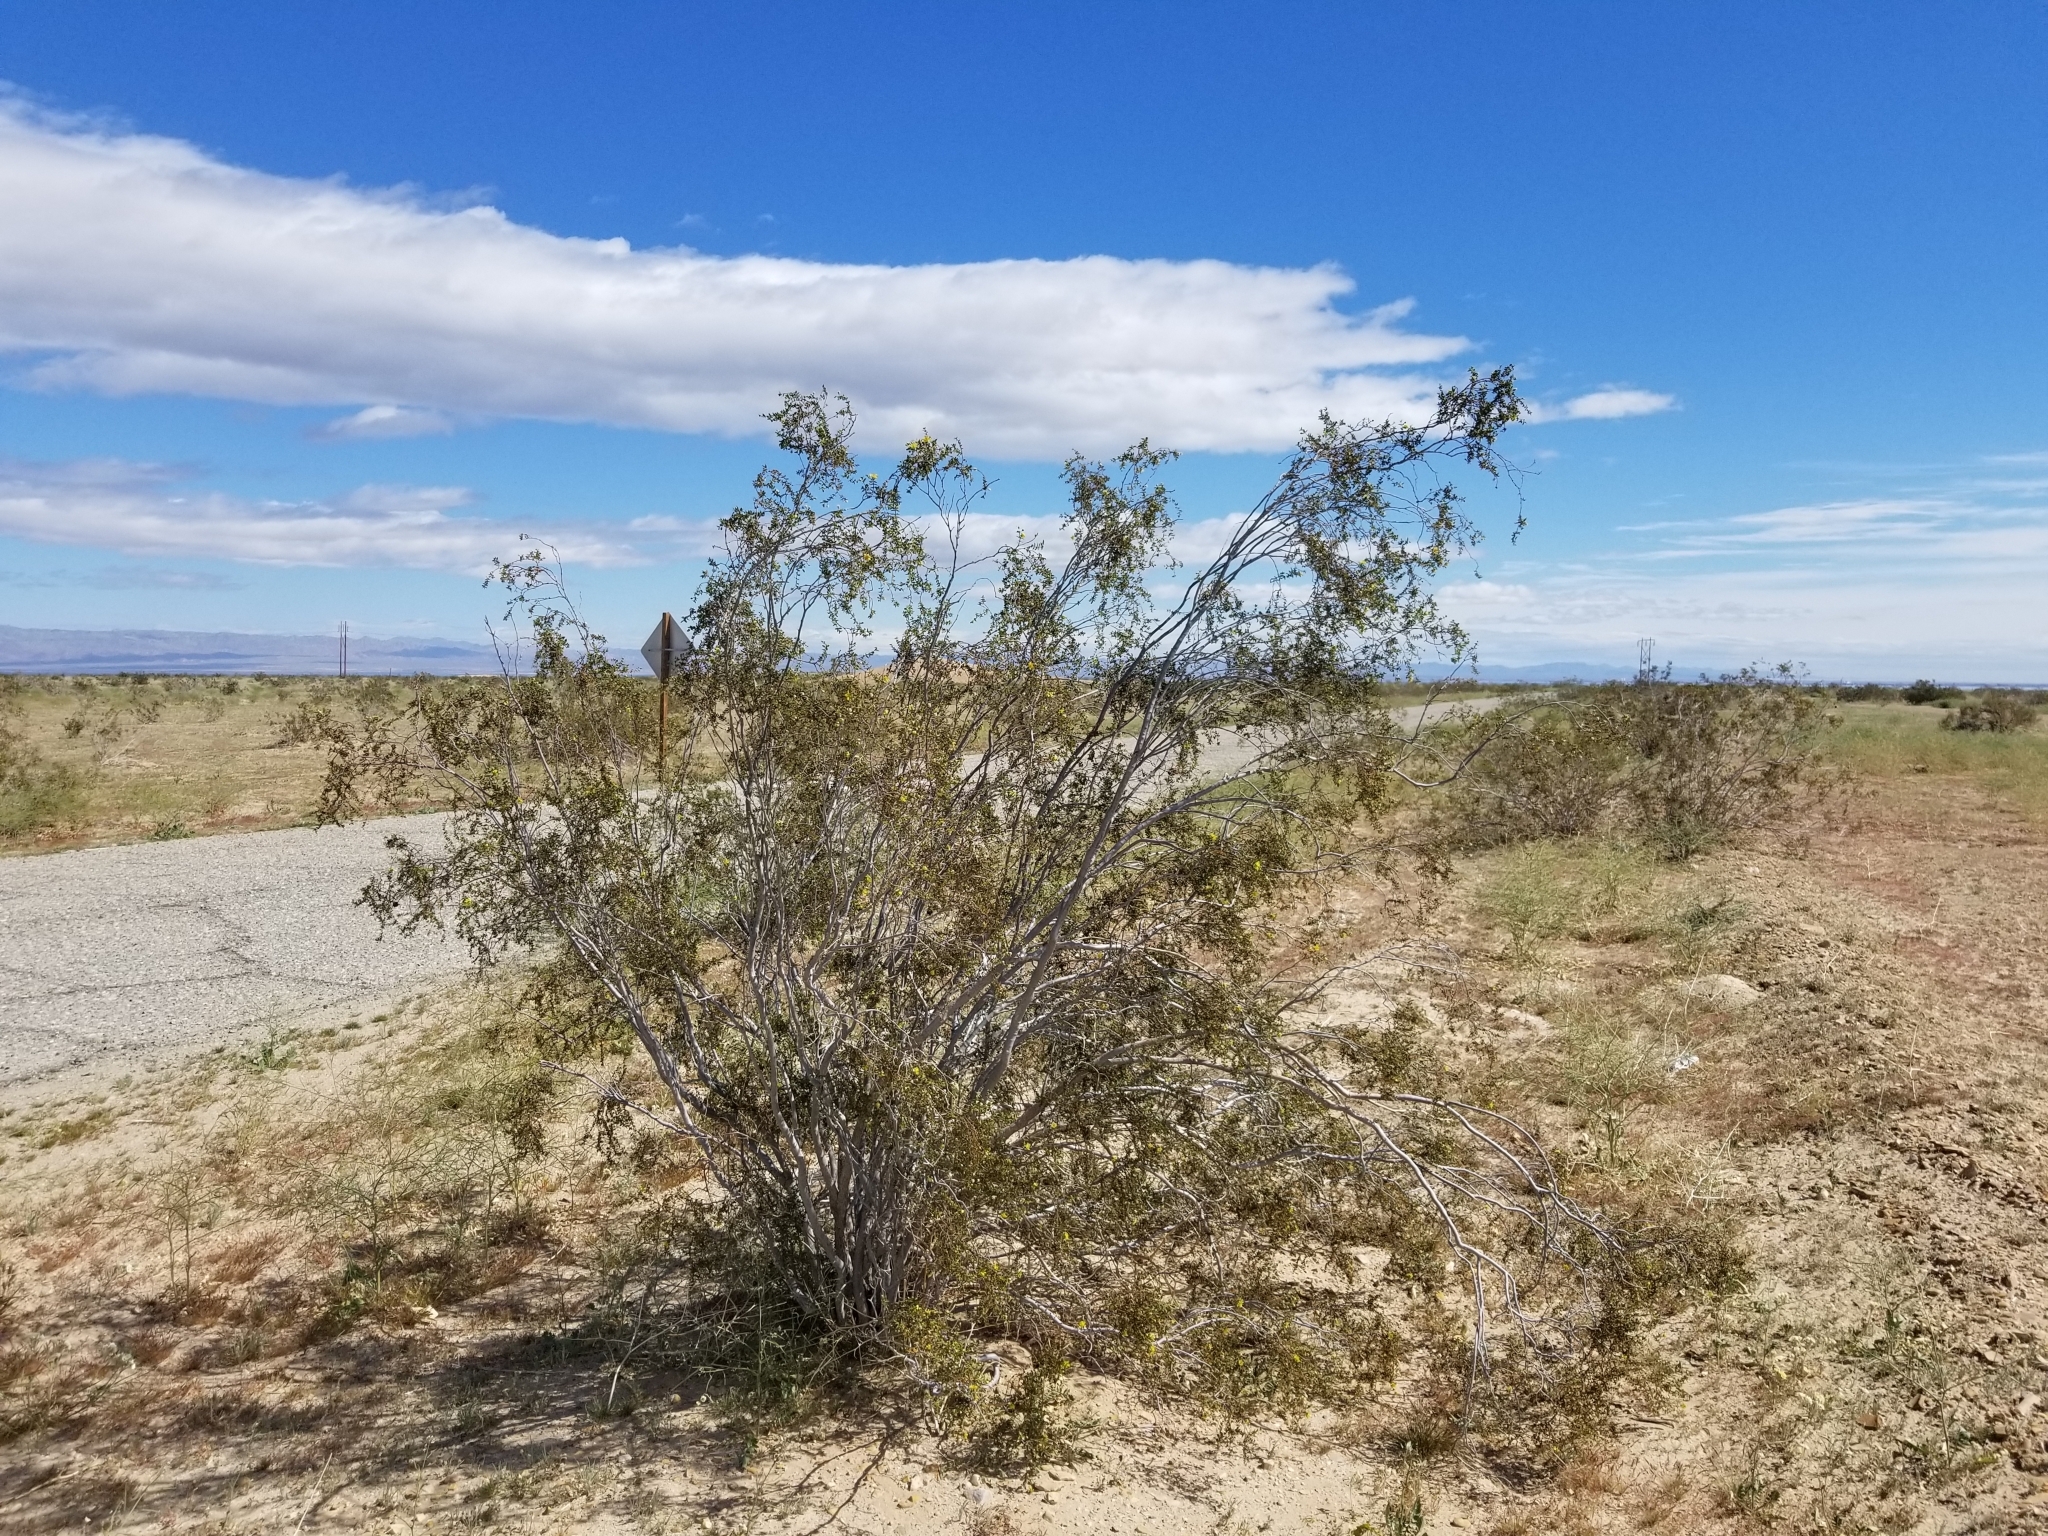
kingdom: Plantae
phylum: Tracheophyta
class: Magnoliopsida
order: Zygophyllales
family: Zygophyllaceae
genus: Larrea
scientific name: Larrea tridentata
